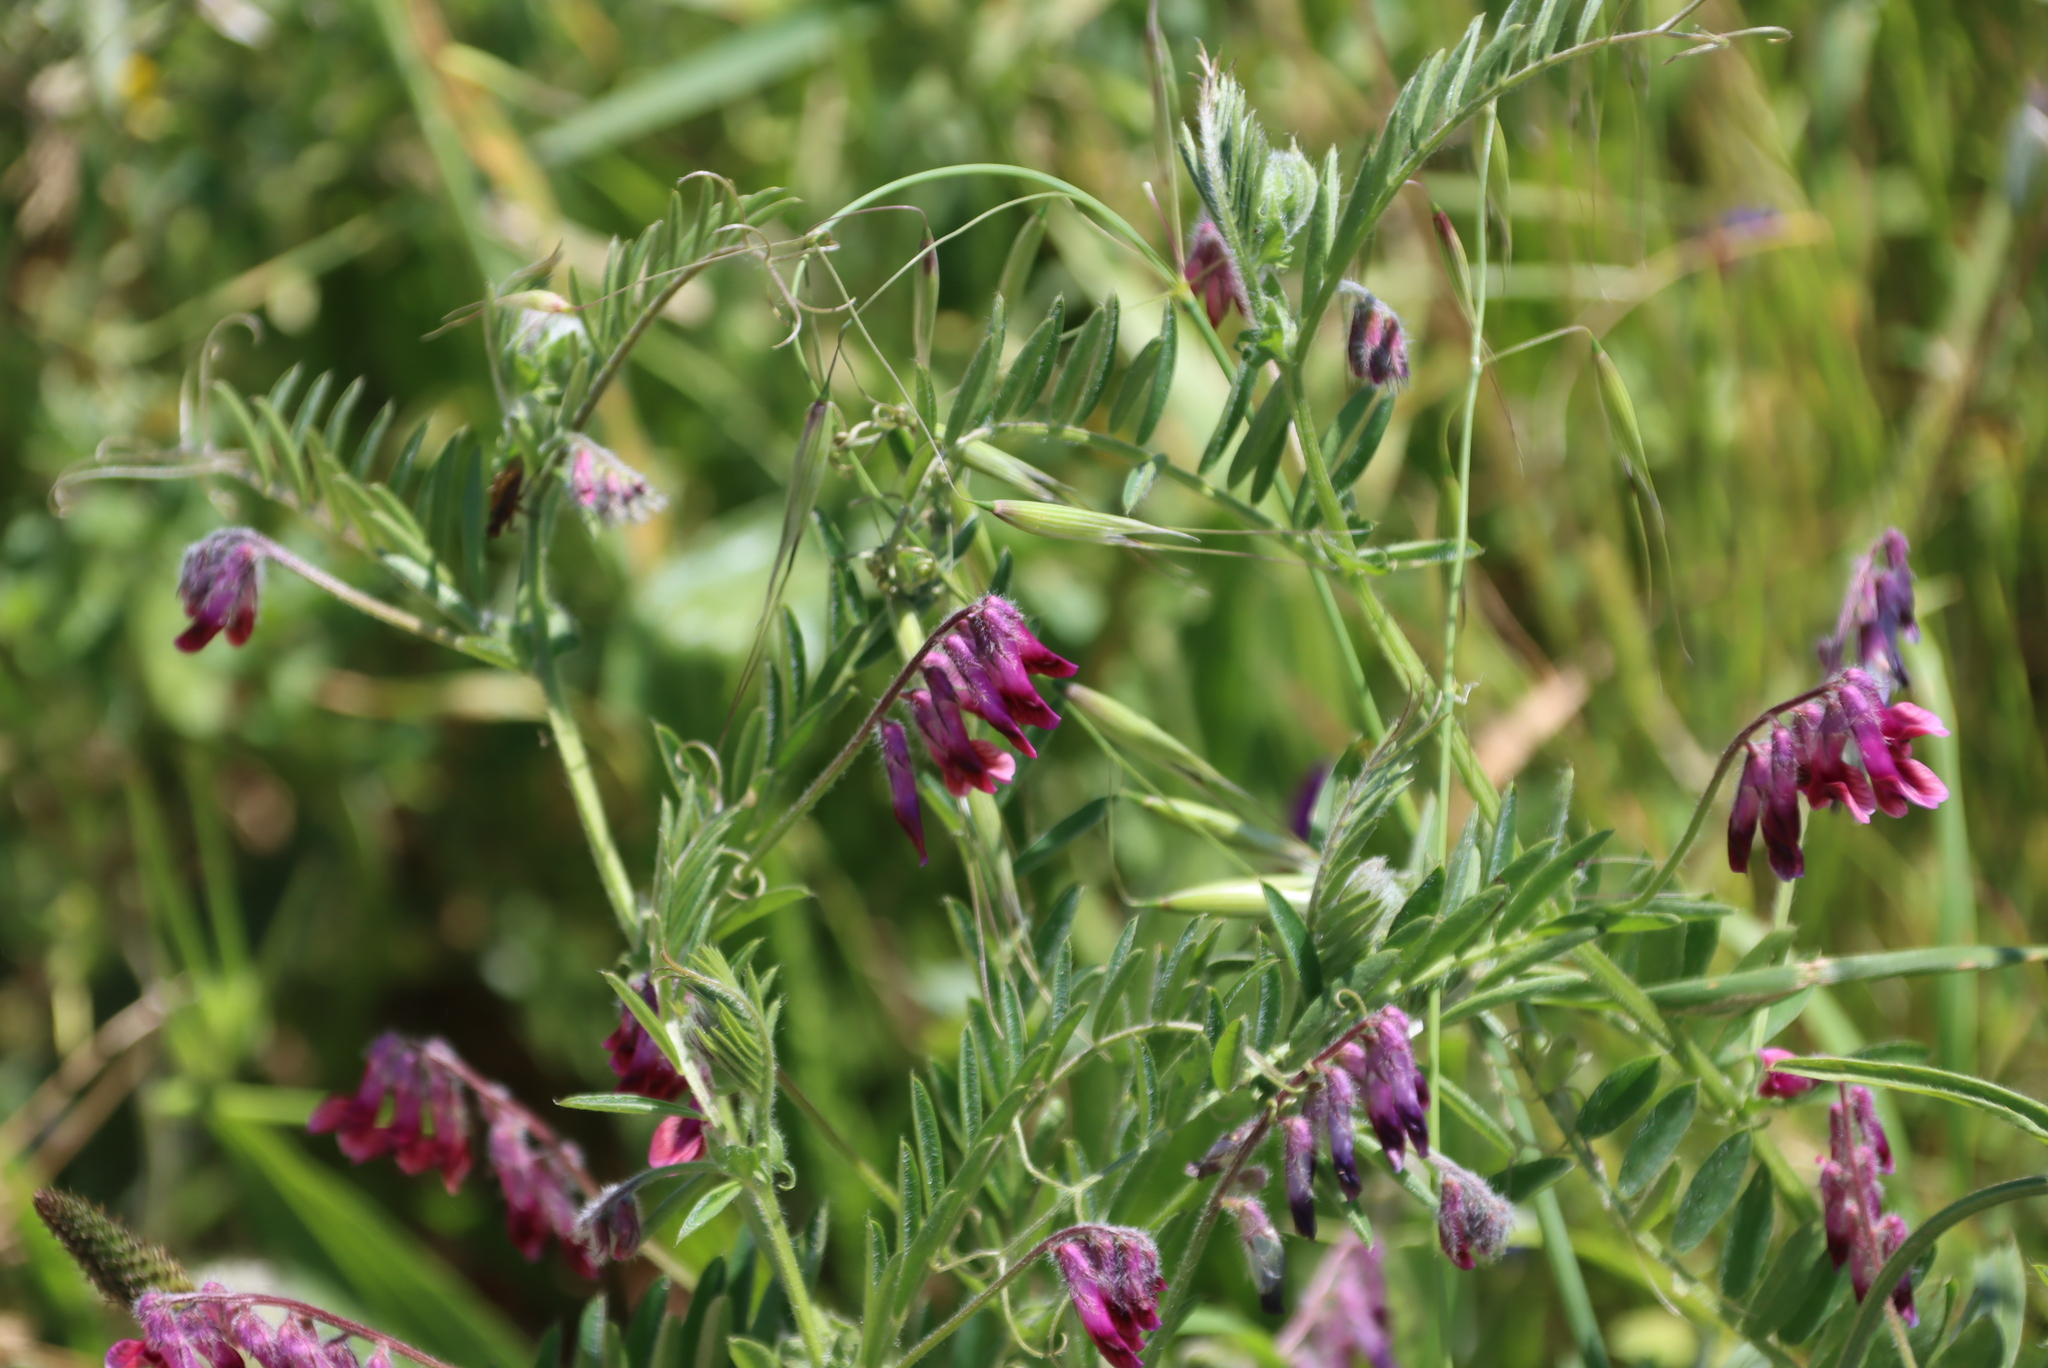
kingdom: Plantae
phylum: Tracheophyta
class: Magnoliopsida
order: Fabales
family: Fabaceae
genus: Vicia
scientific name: Vicia benghalensis
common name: Purple vetch
